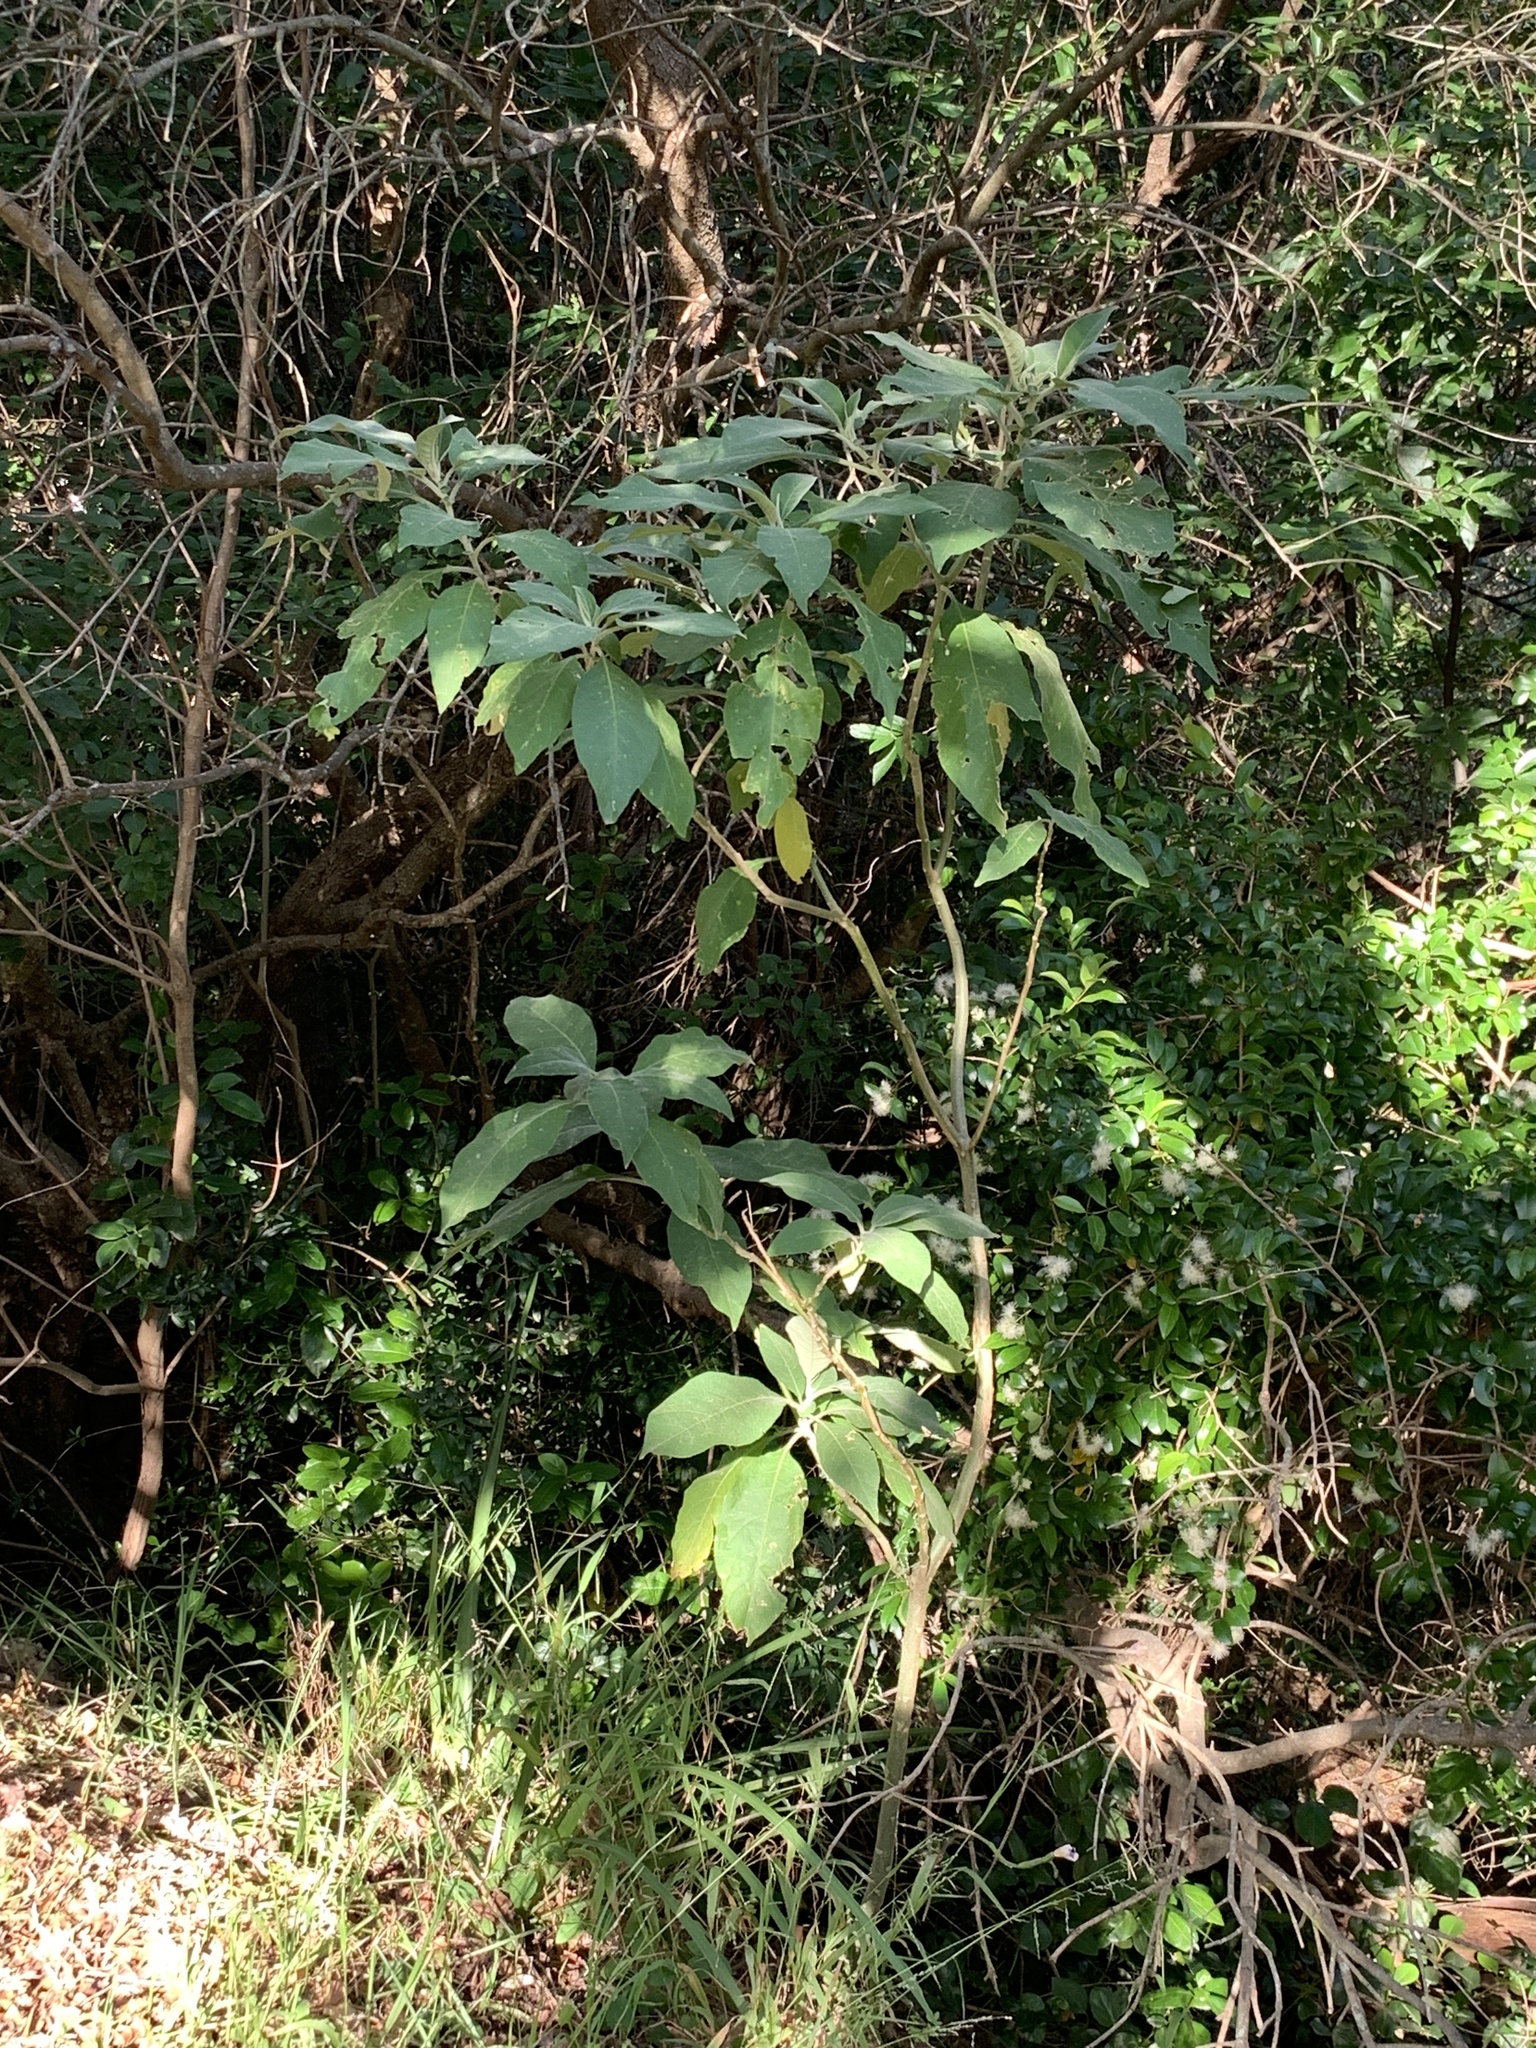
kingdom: Plantae
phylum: Tracheophyta
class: Magnoliopsida
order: Solanales
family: Solanaceae
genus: Solanum
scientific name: Solanum mauritianum
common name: Earleaf nightshade
